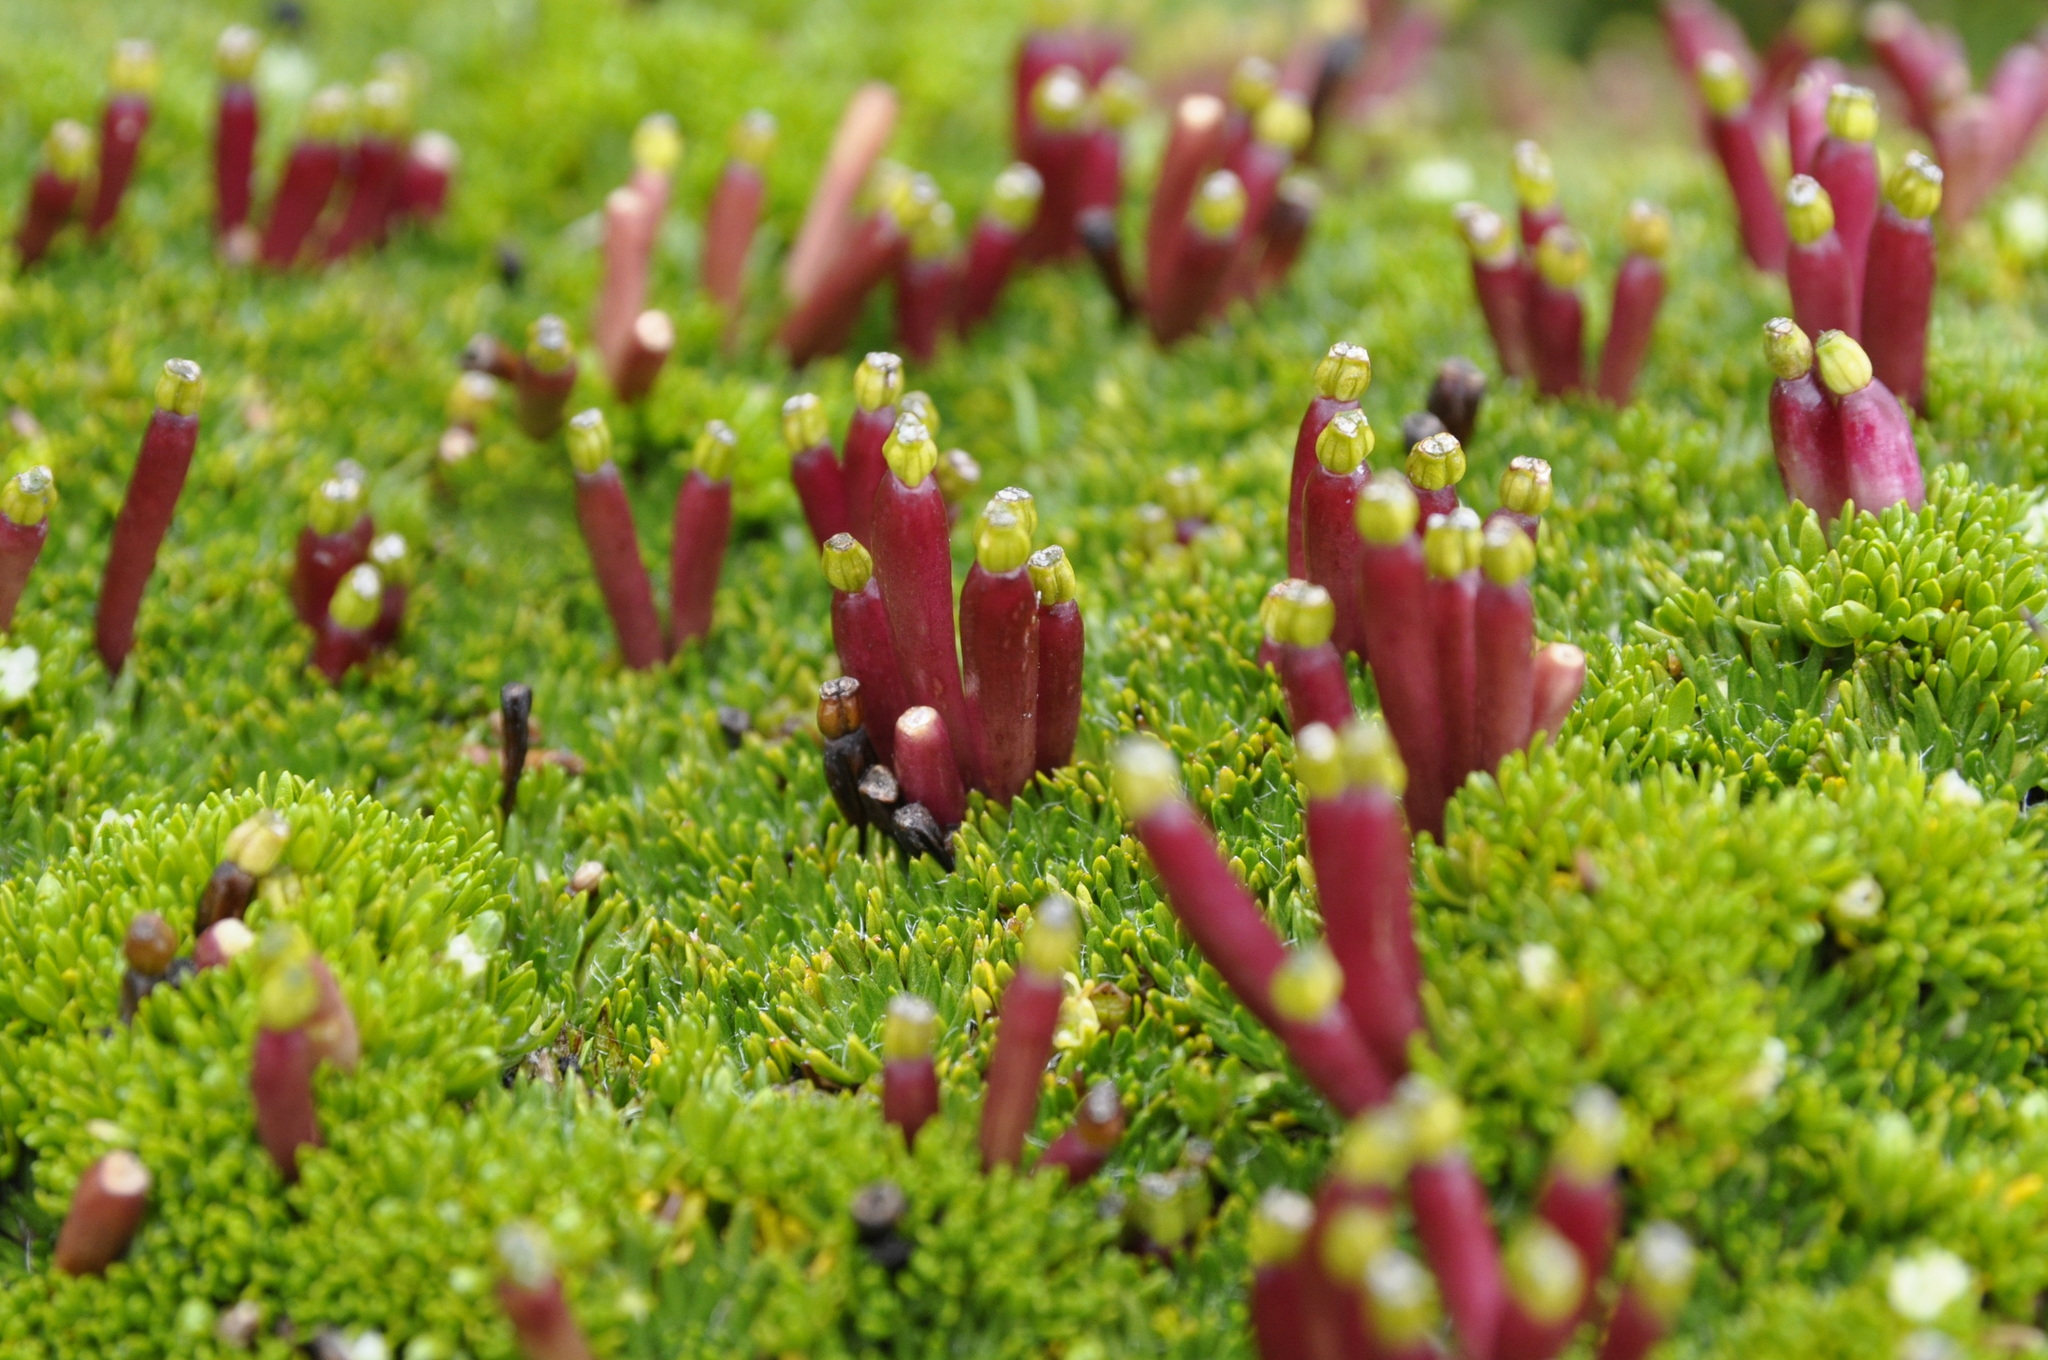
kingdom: Plantae
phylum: Tracheophyta
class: Magnoliopsida
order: Apiales
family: Apiaceae
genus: Azorella
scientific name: Azorella corymbosa
